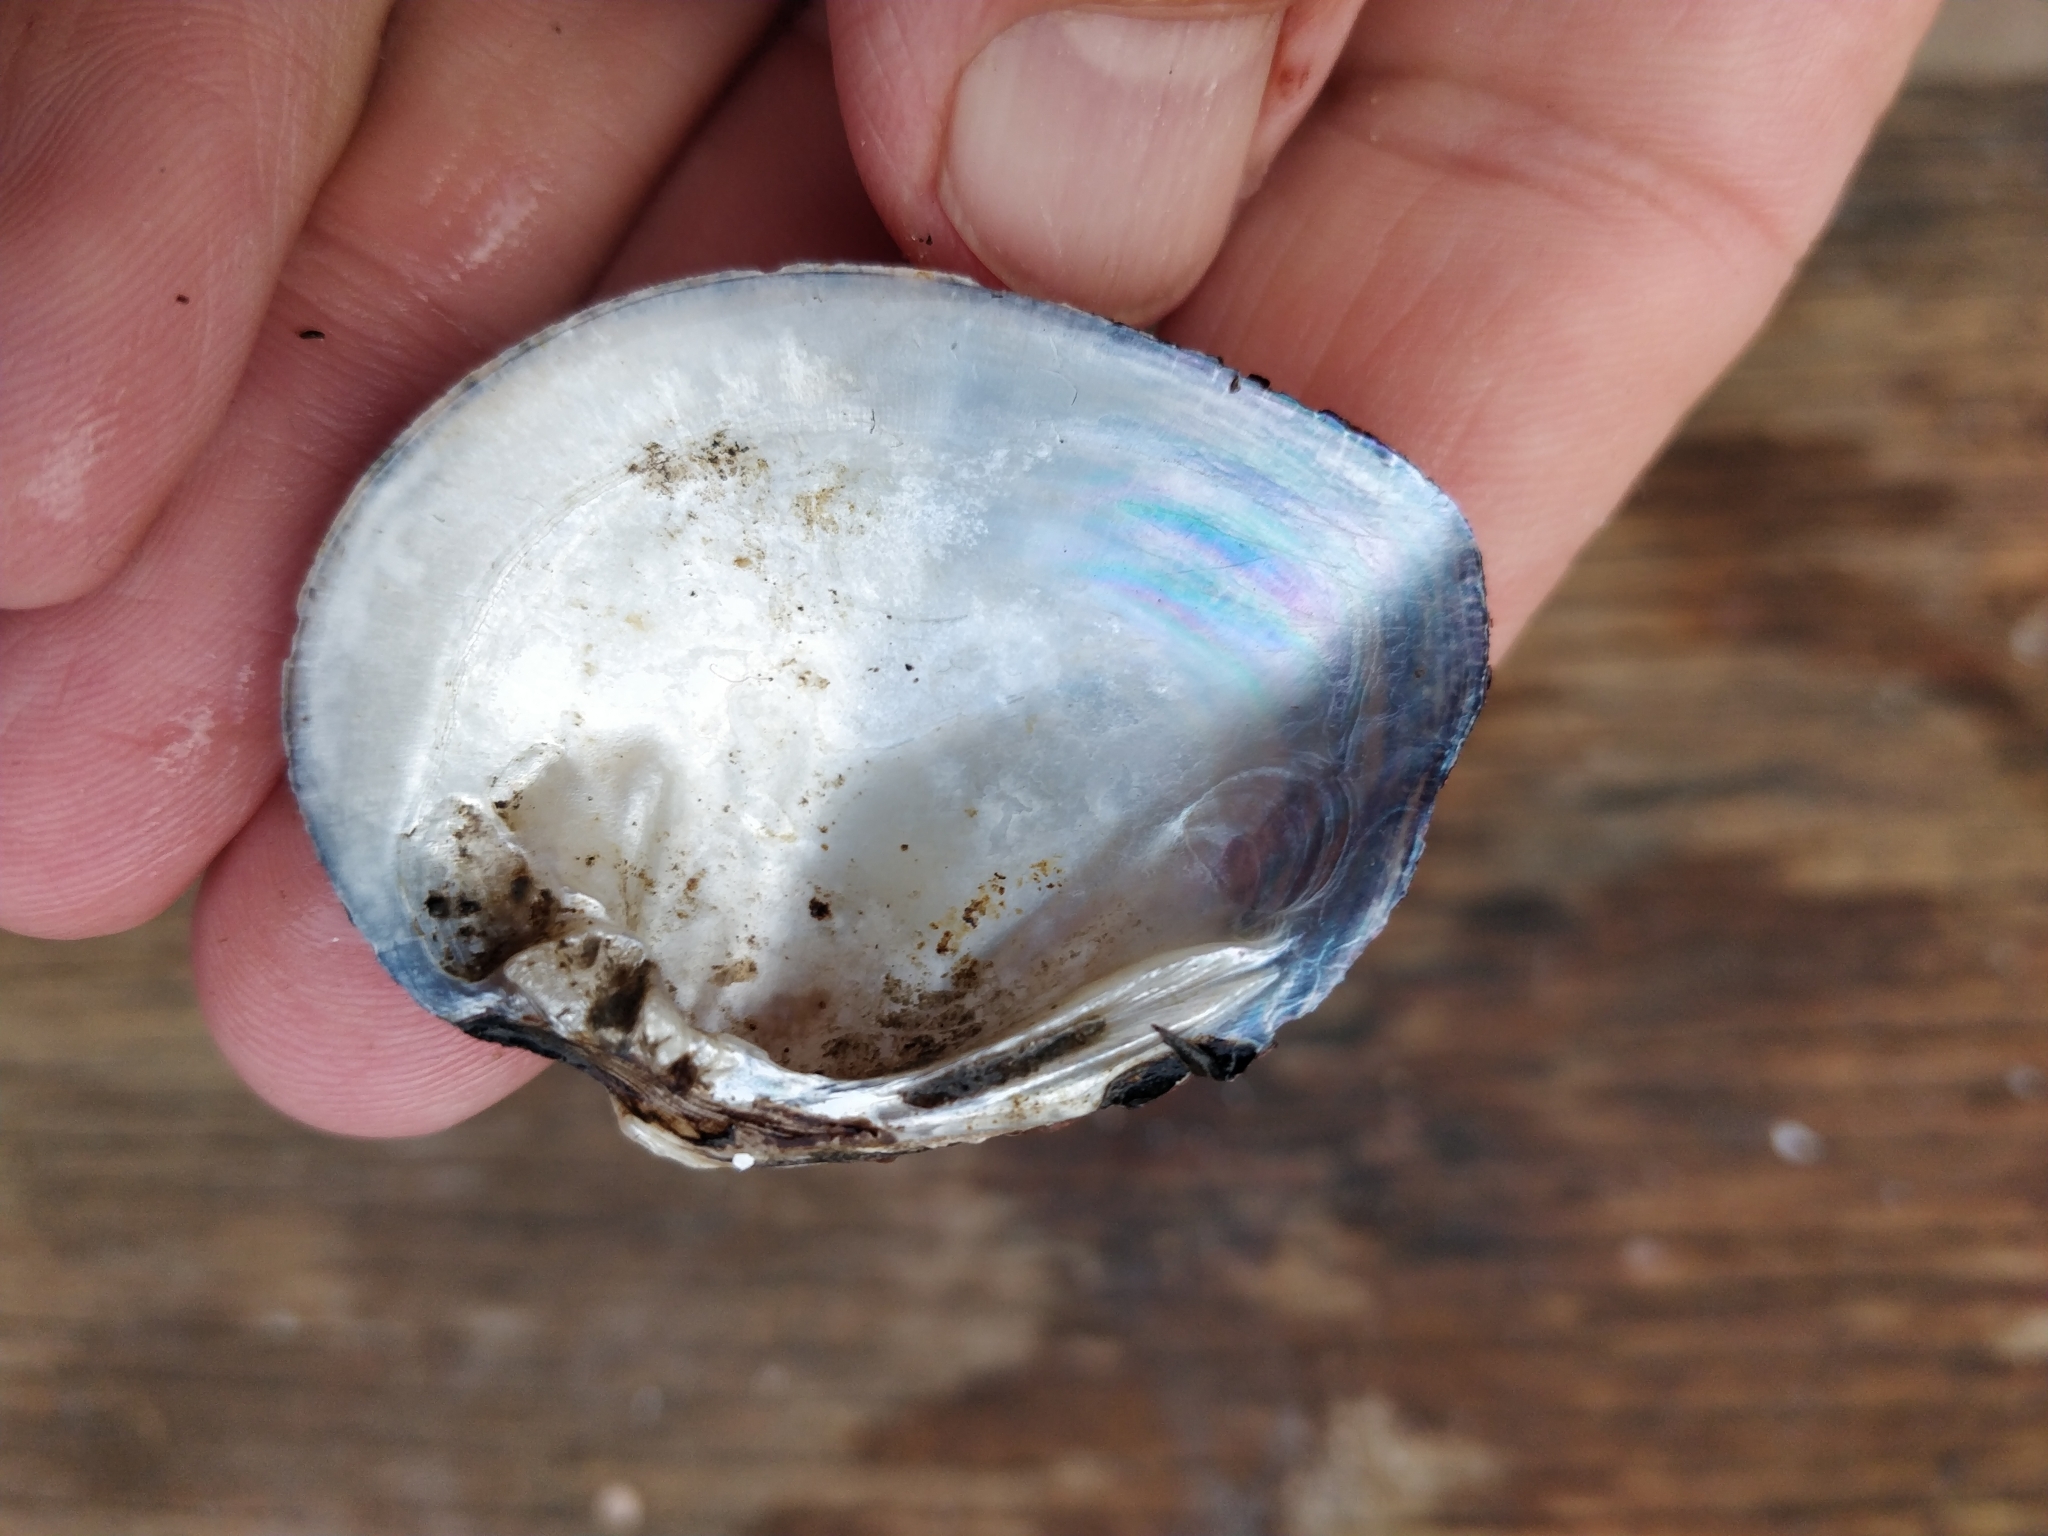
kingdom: Animalia
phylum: Mollusca
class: Bivalvia
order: Unionida
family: Unionidae
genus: Fusconaia
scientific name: Fusconaia flava
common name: Wabash pigtoe
